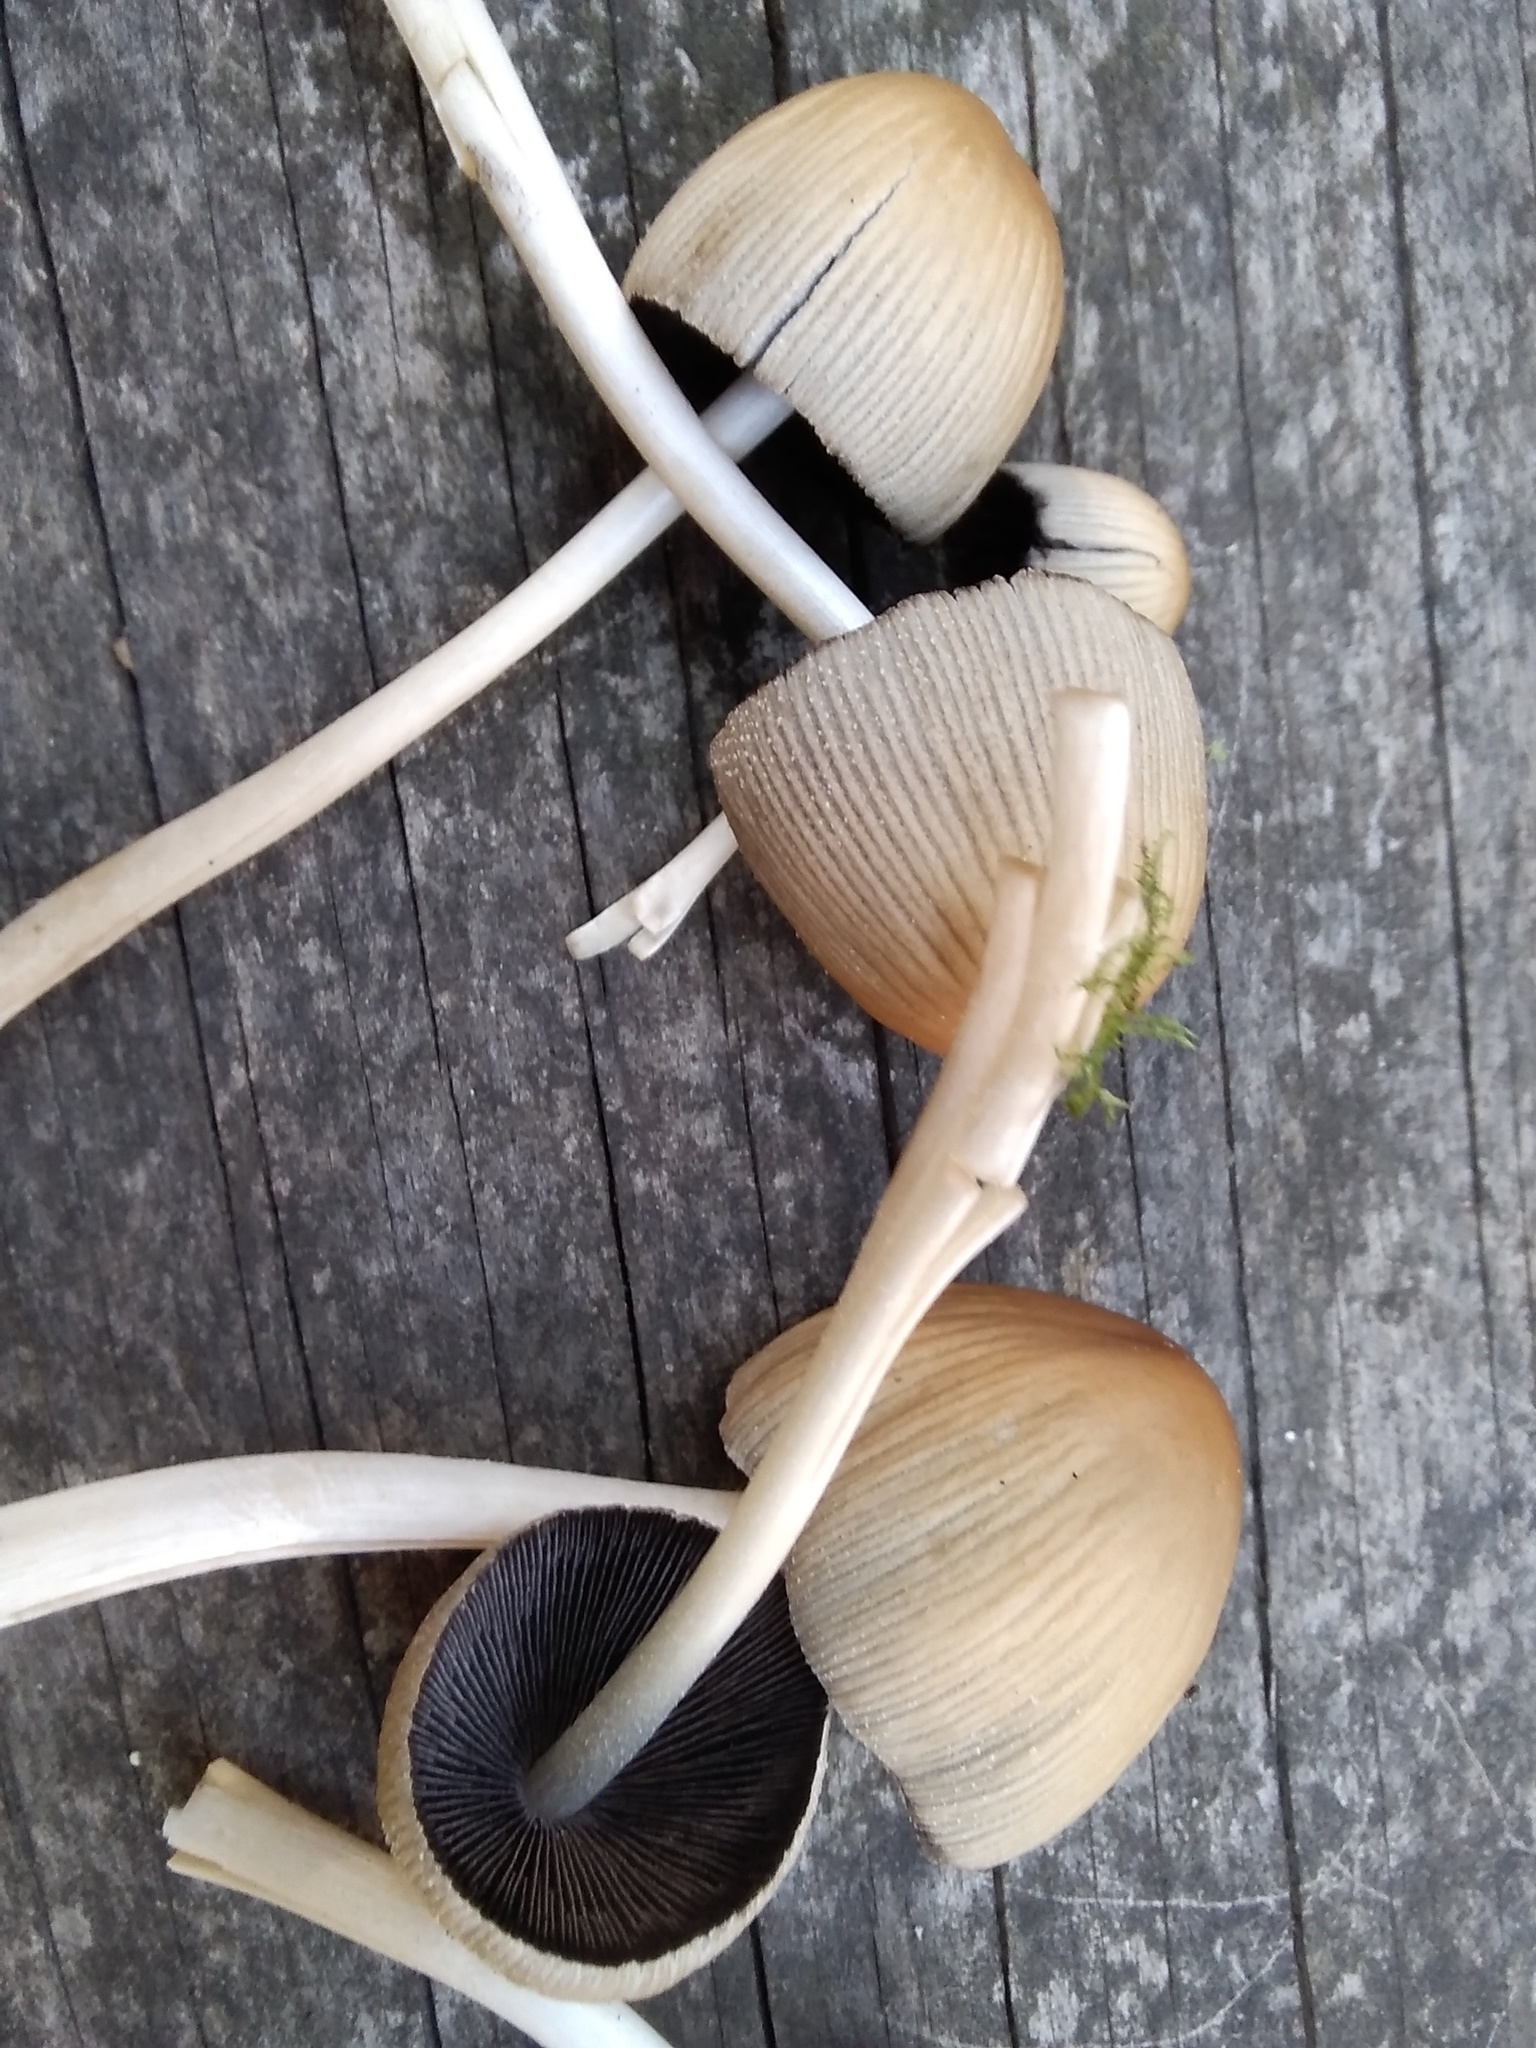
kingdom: Fungi
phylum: Basidiomycota
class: Agaricomycetes
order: Agaricales
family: Psathyrellaceae
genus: Coprinellus
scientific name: Coprinellus micaceus
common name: Glistening ink-cap
